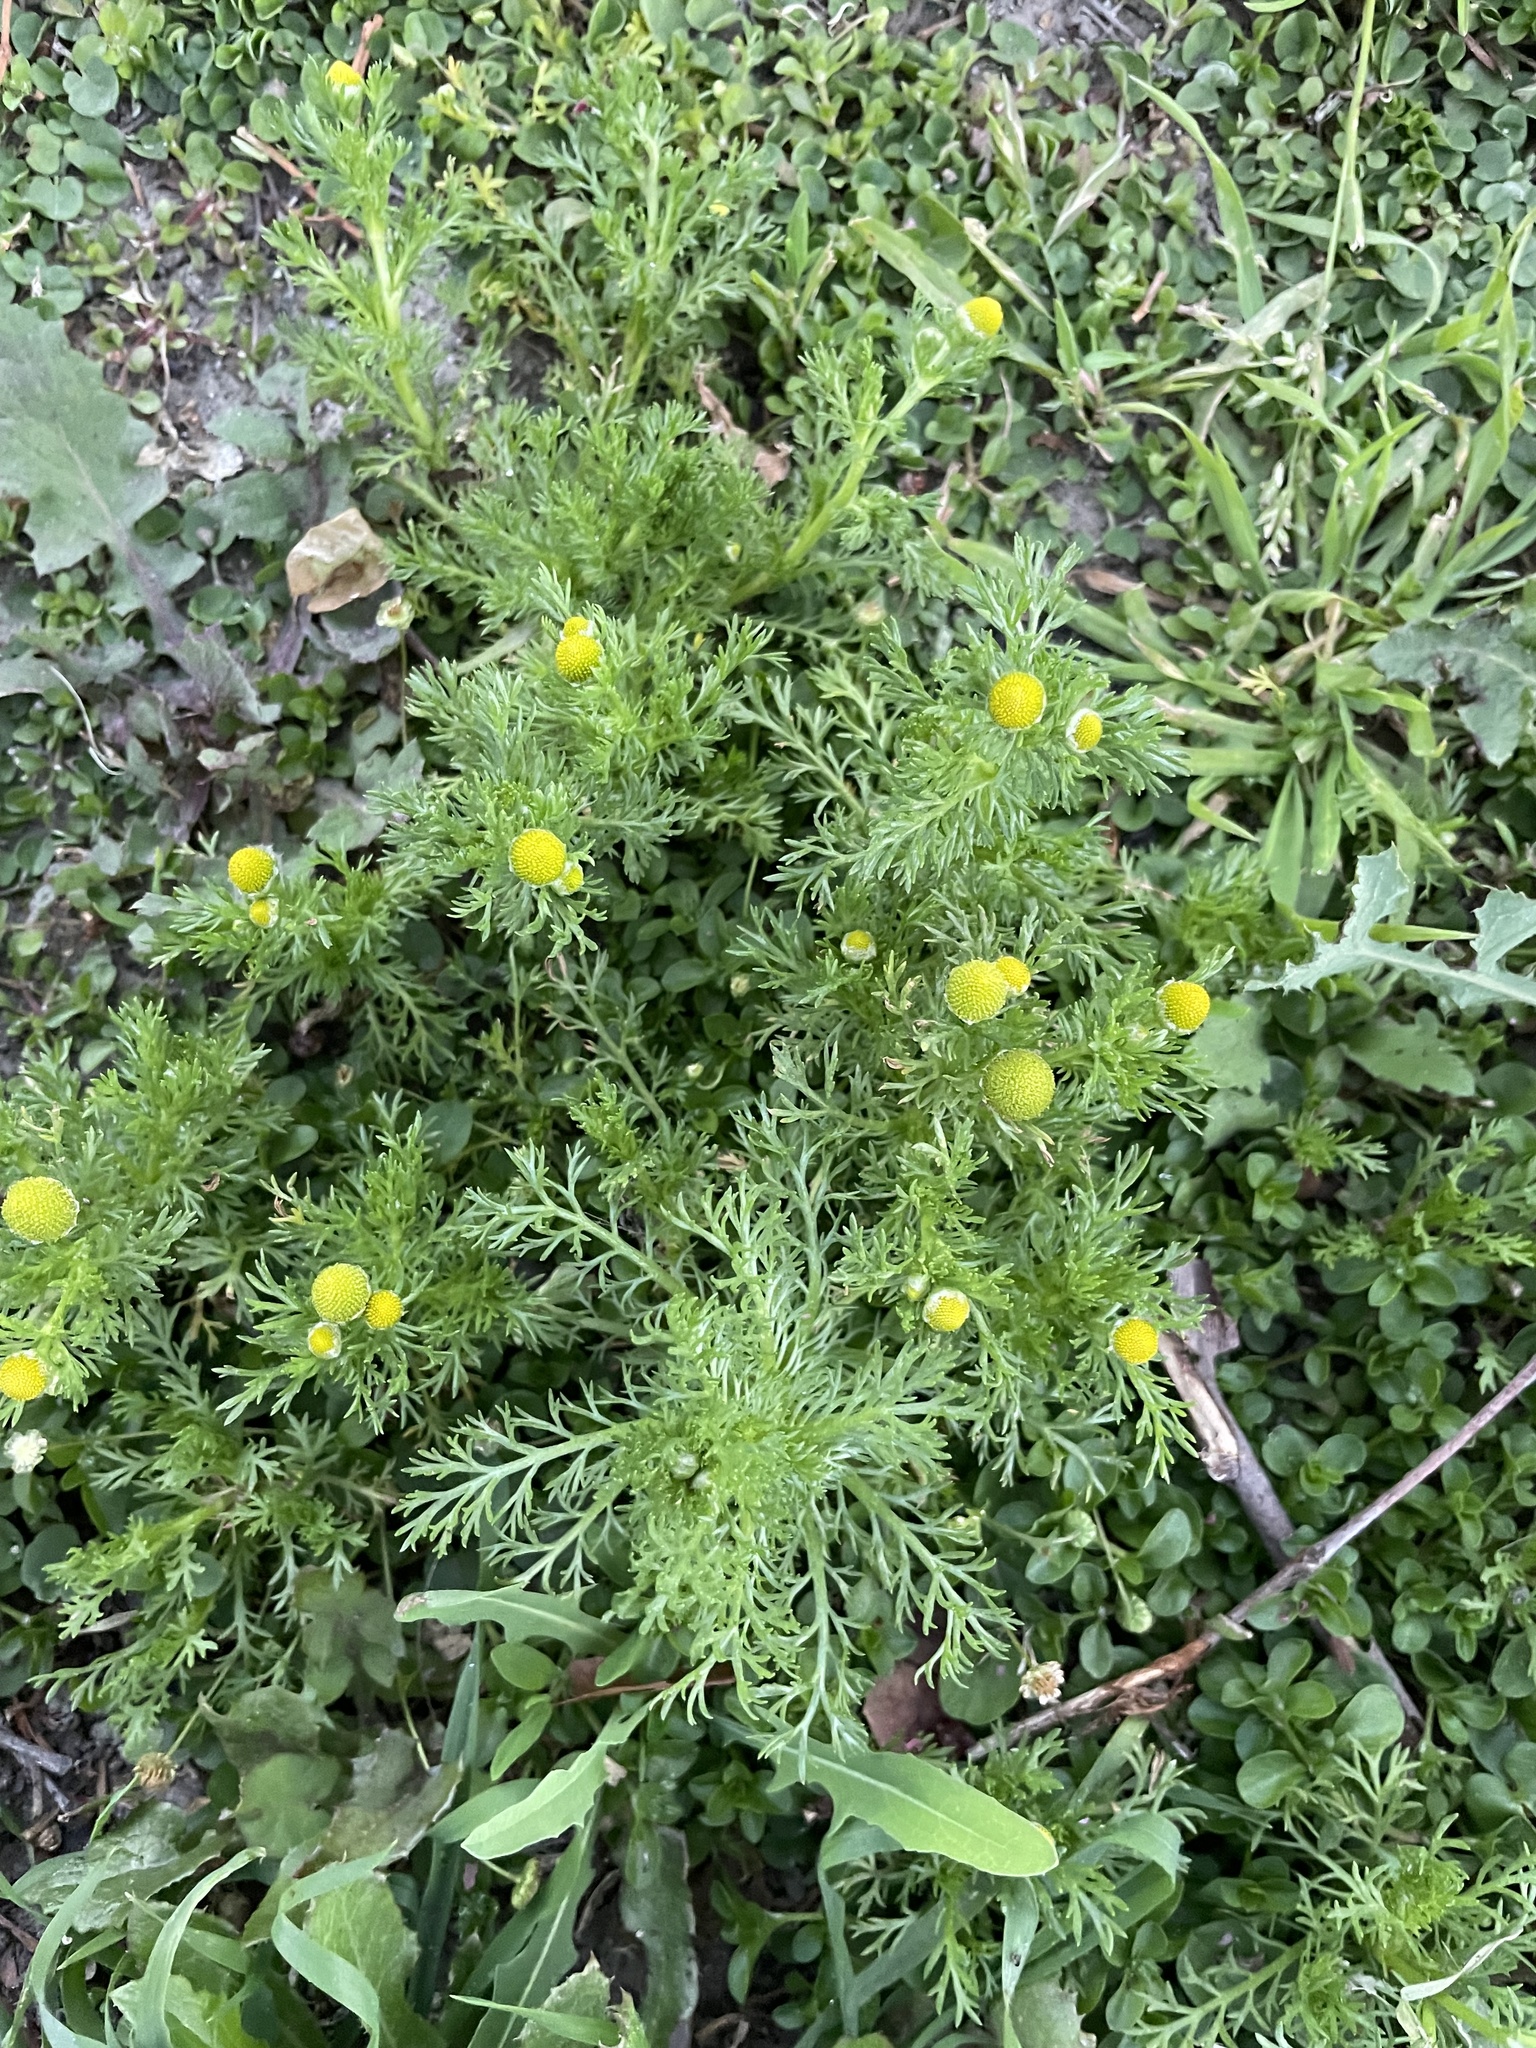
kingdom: Plantae
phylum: Tracheophyta
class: Magnoliopsida
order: Asterales
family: Asteraceae
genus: Matricaria
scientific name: Matricaria discoidea
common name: Disc mayweed
